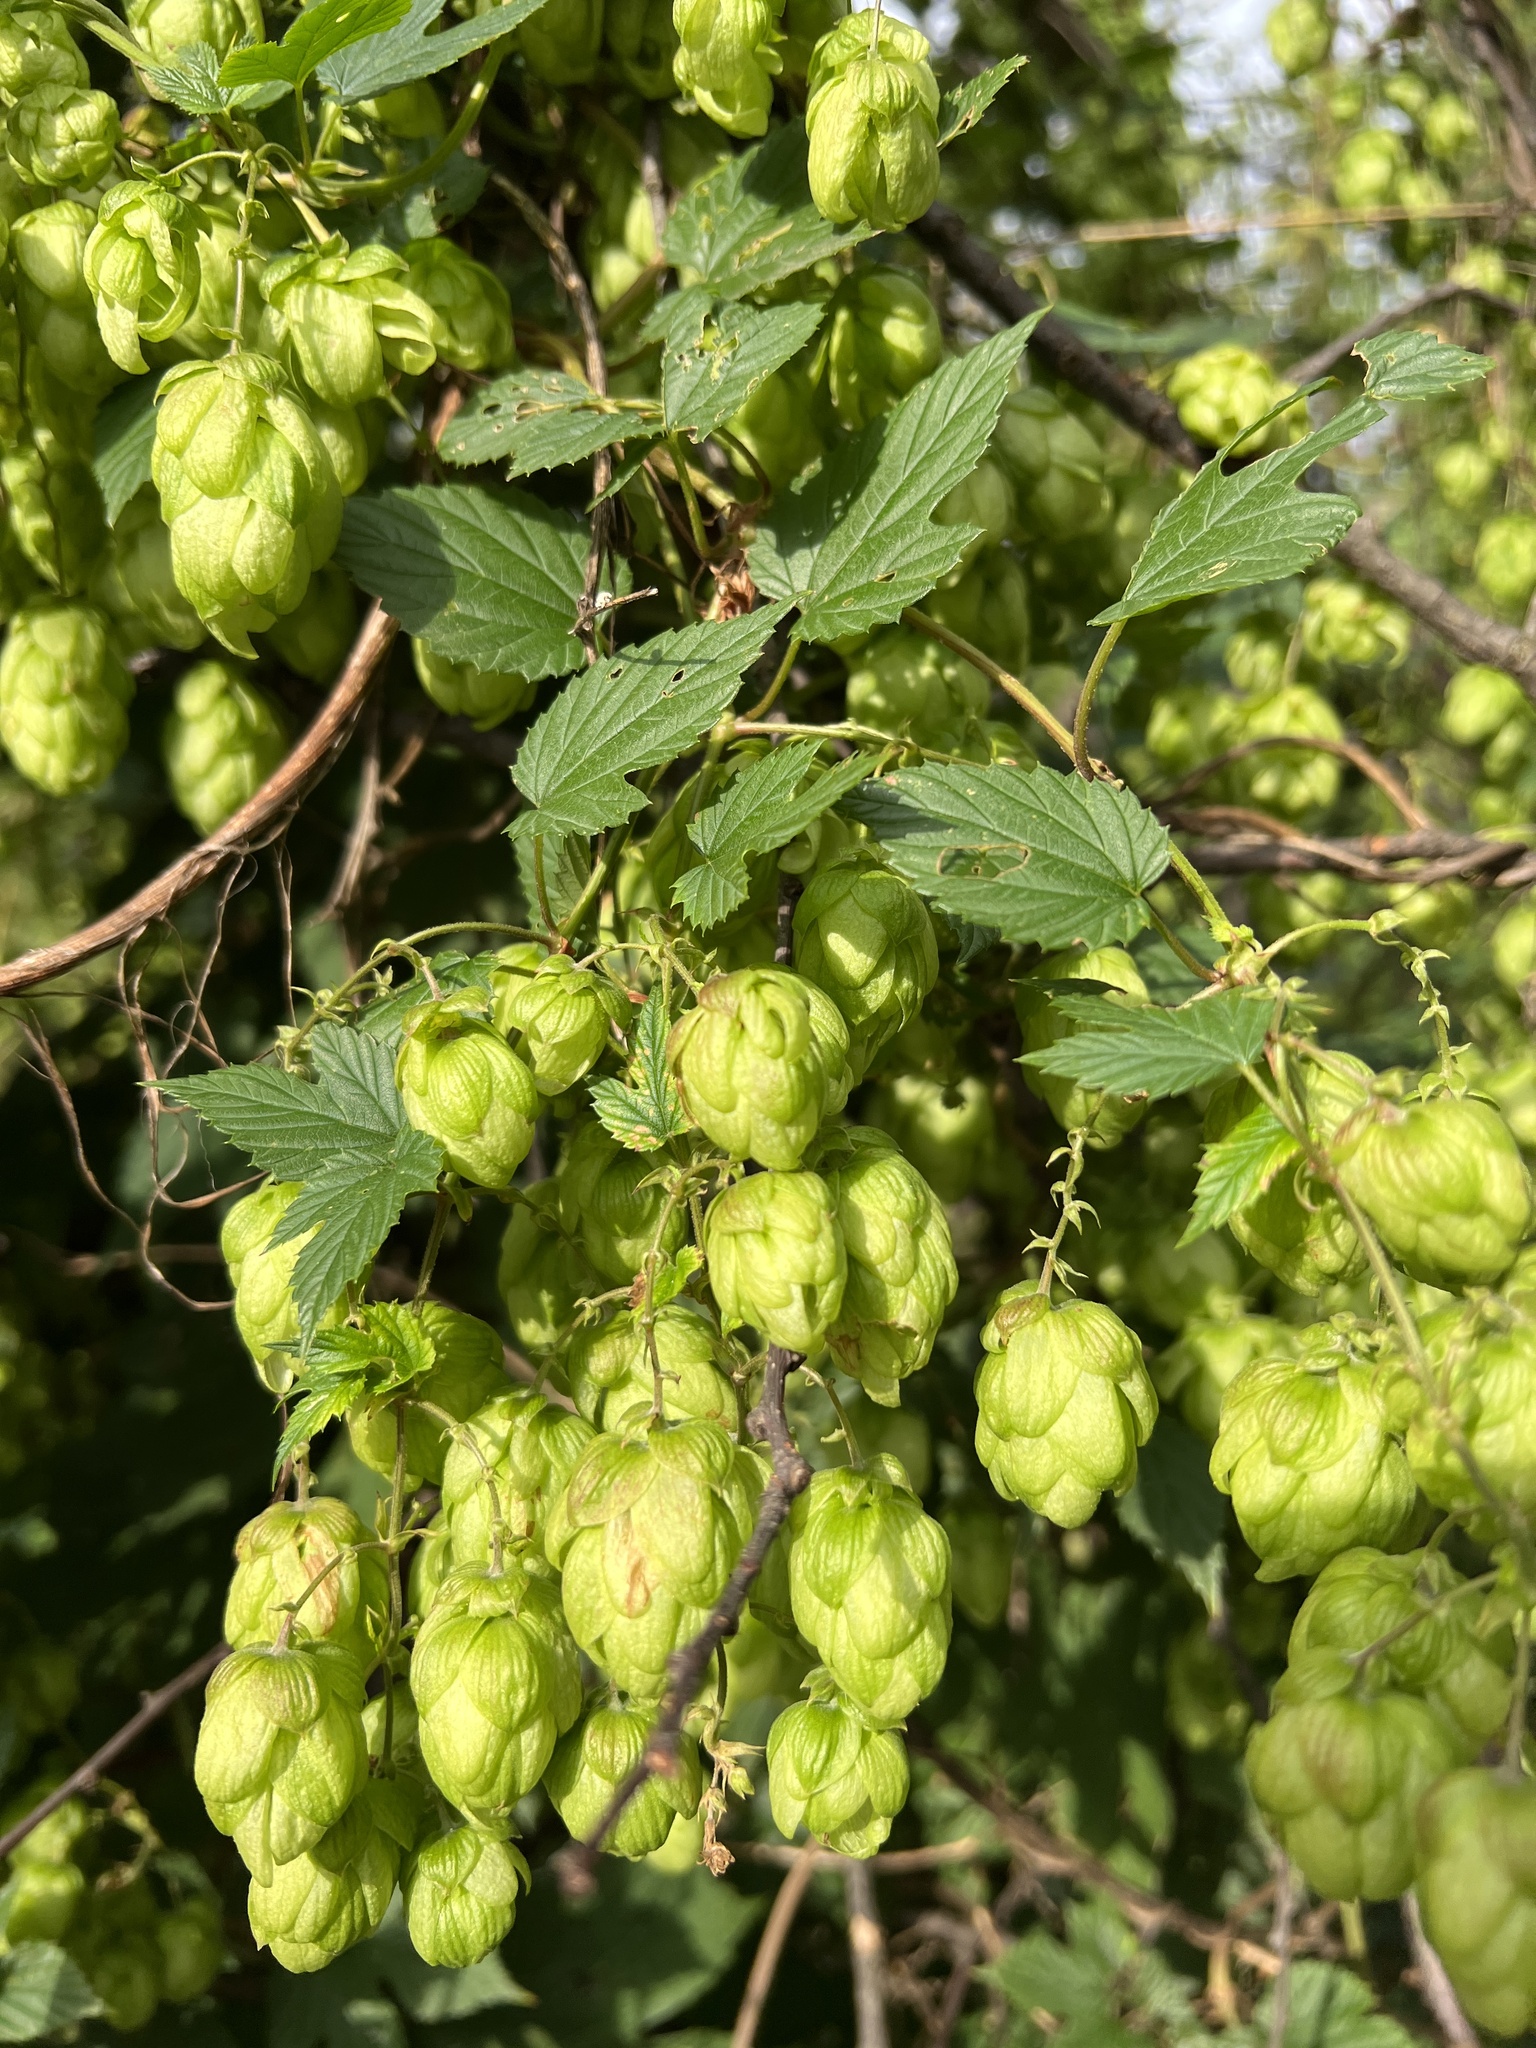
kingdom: Plantae
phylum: Tracheophyta
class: Magnoliopsida
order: Rosales
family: Cannabaceae
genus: Humulus
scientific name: Humulus lupulus
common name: Hop
